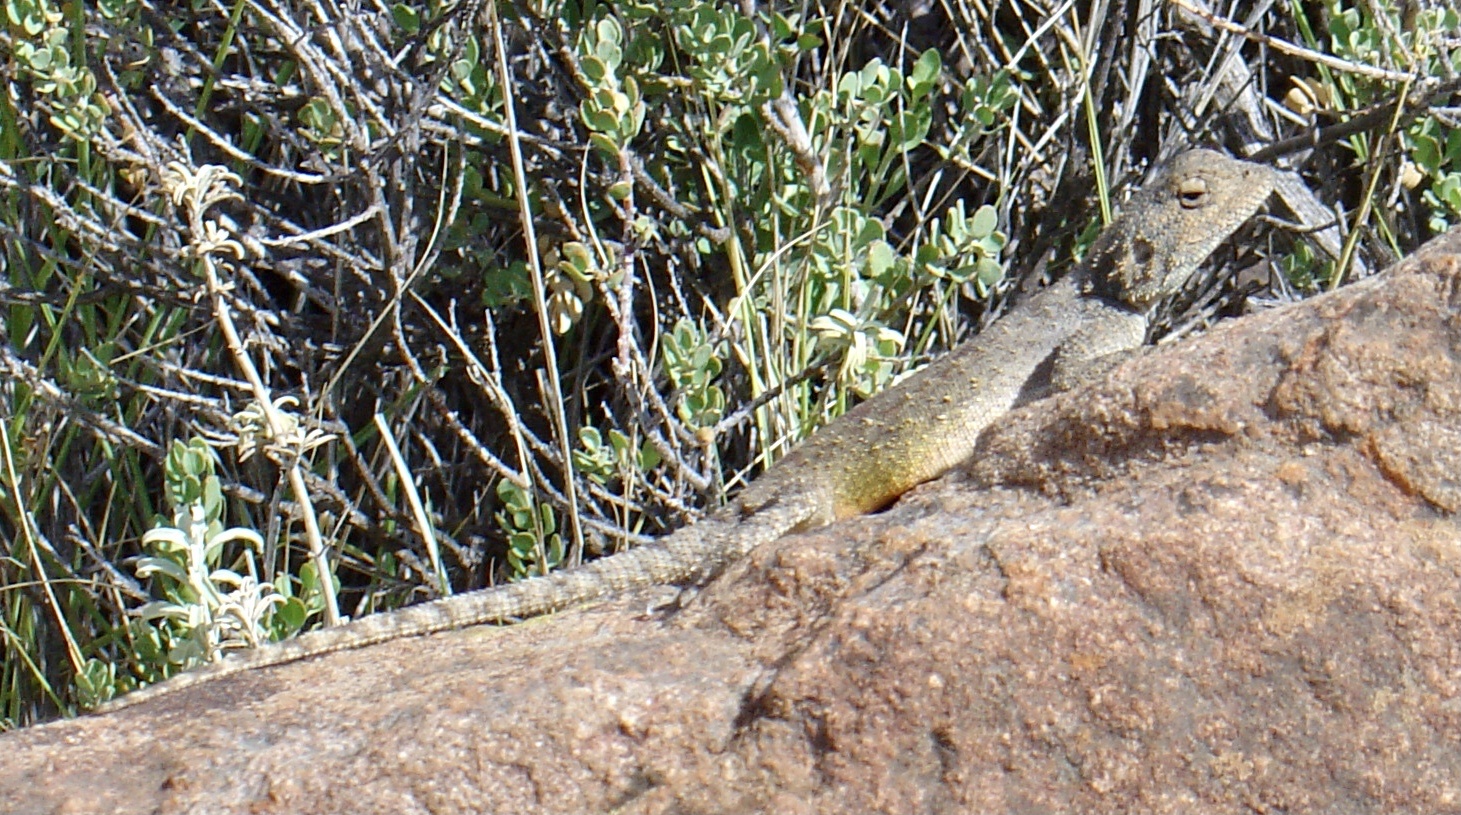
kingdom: Animalia
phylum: Chordata
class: Squamata
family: Agamidae
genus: Agama
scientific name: Agama atra
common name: Southern african rock agama
